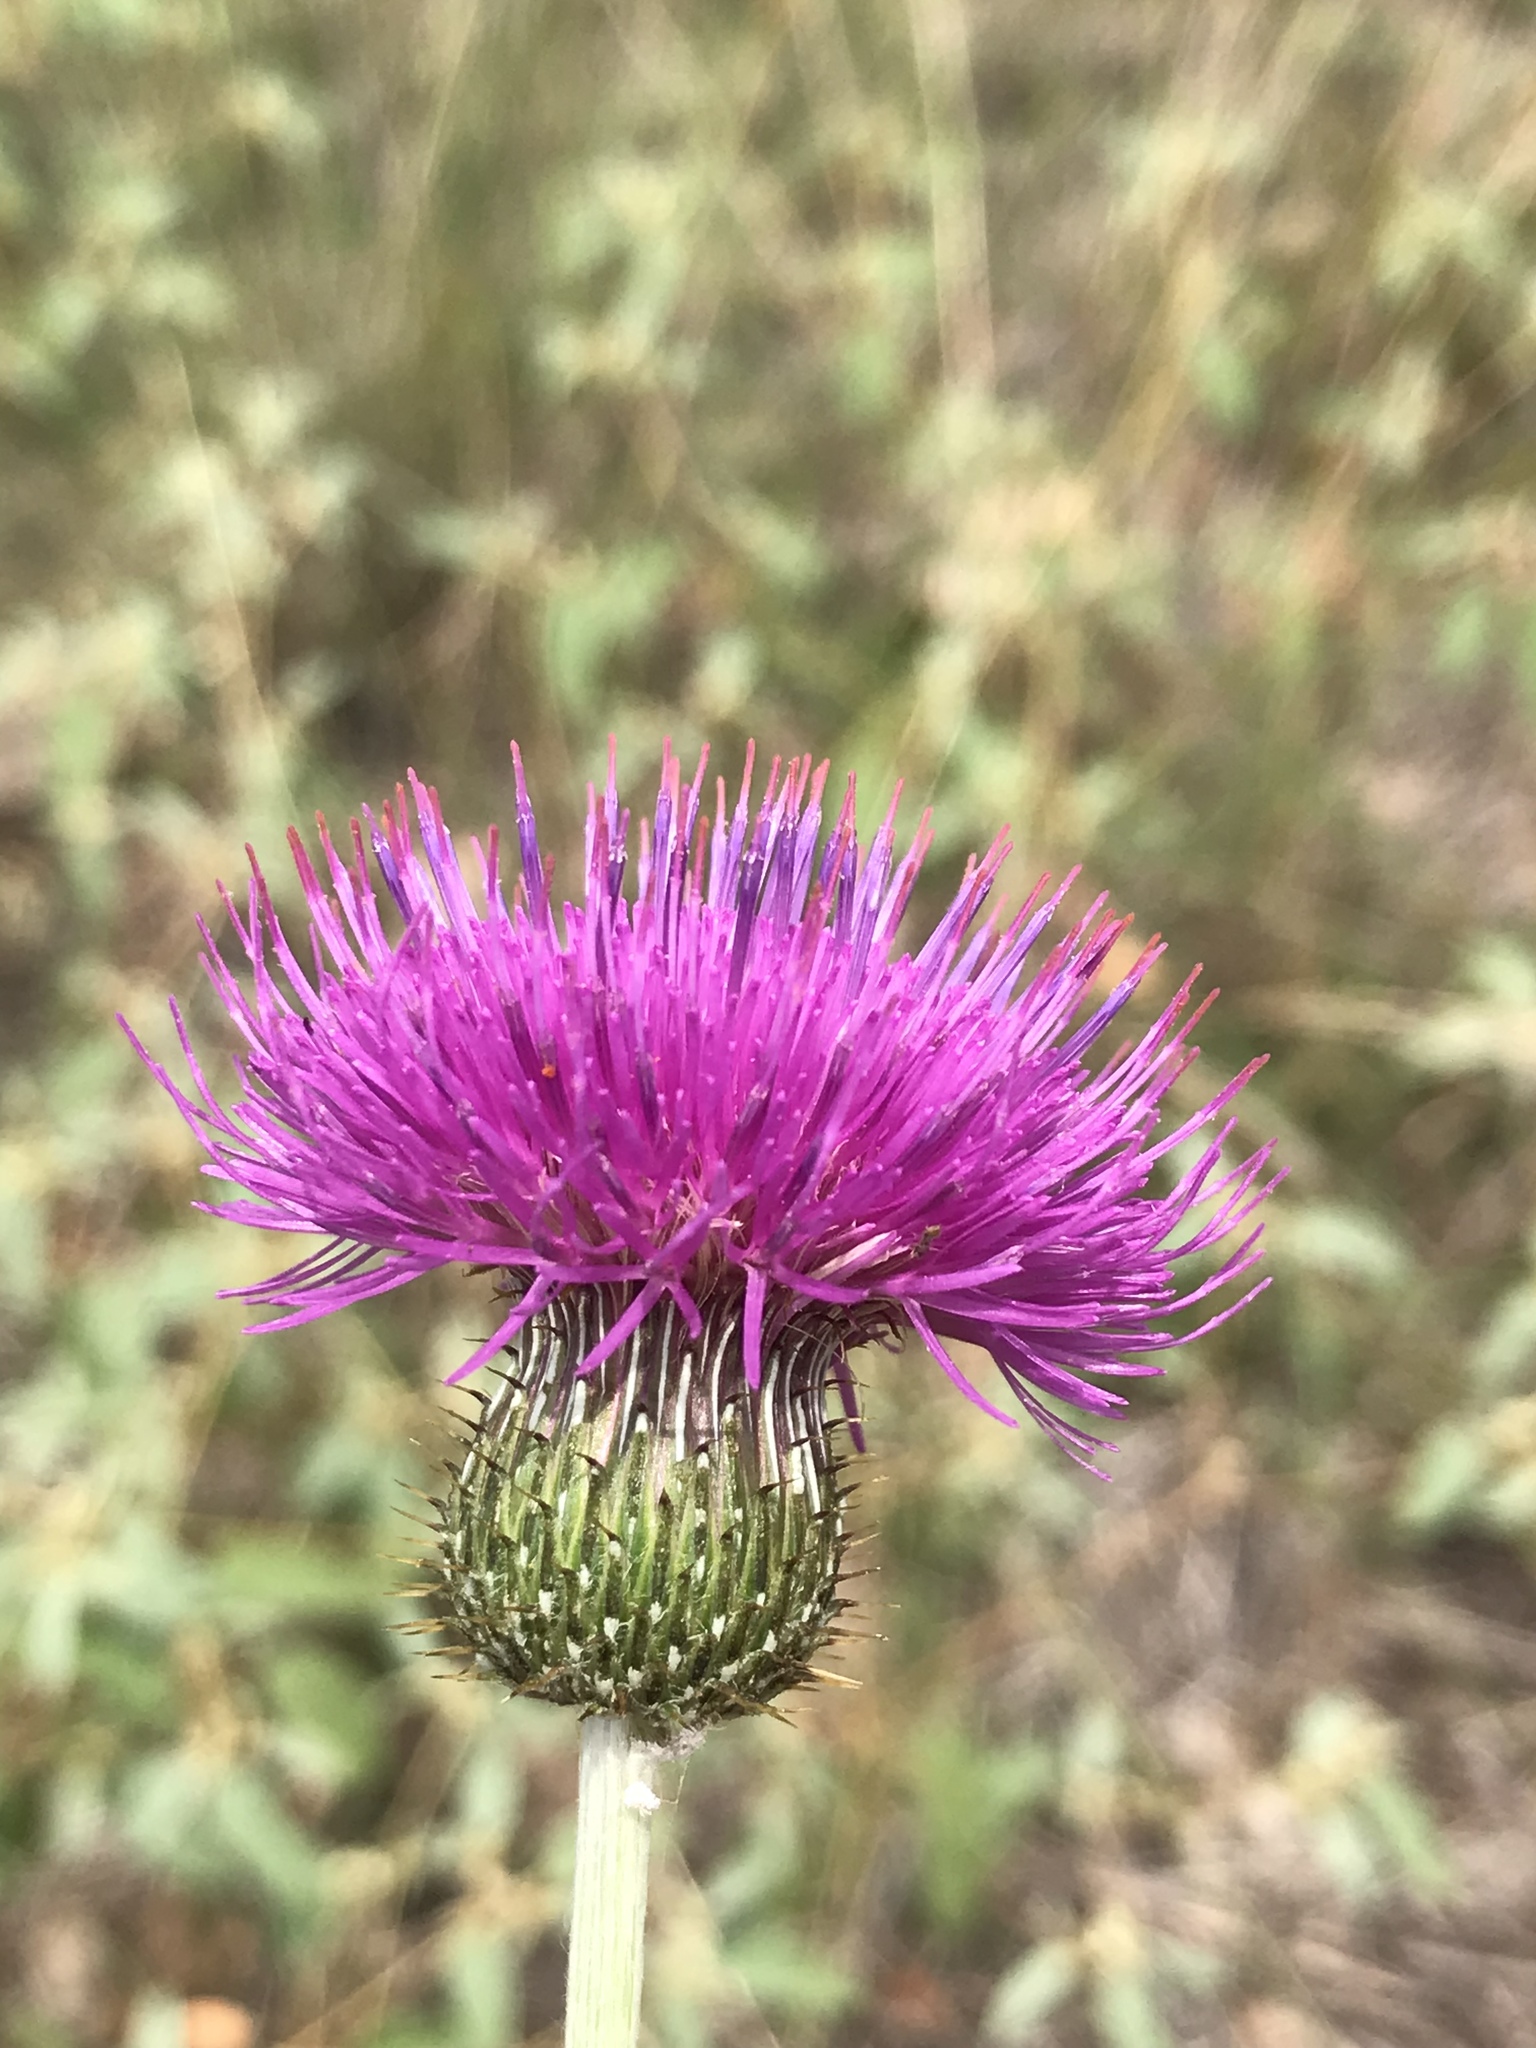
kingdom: Plantae
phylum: Tracheophyta
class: Magnoliopsida
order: Asterales
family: Asteraceae
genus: Cirsium
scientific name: Cirsium texanum
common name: Texas purple thistle
